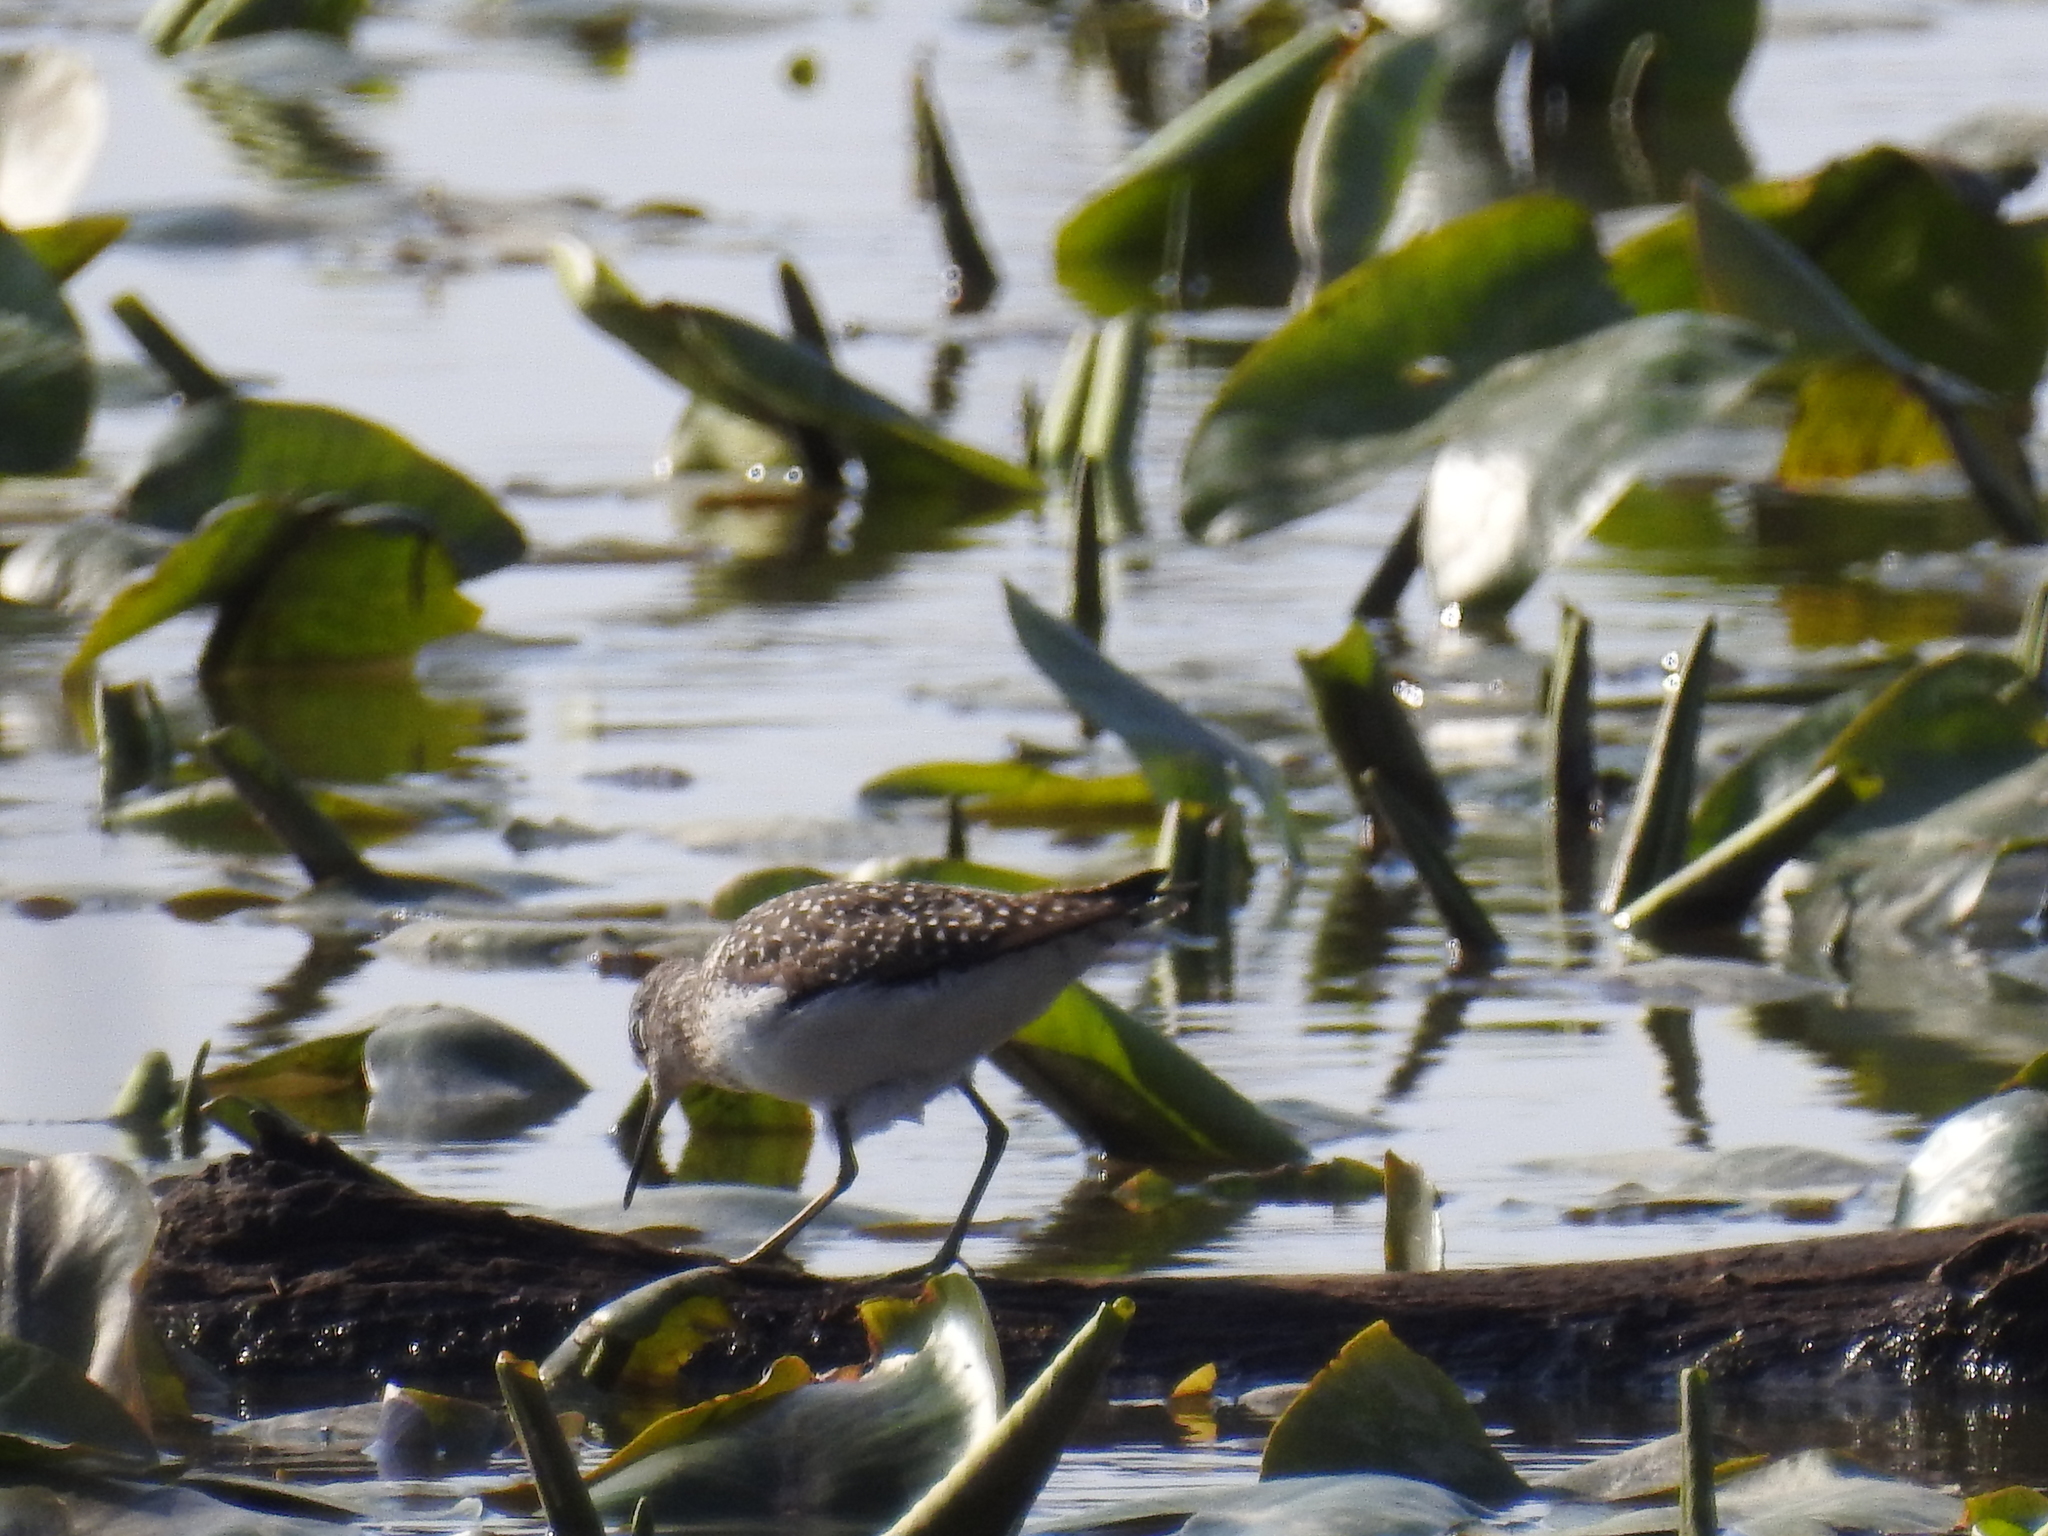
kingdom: Animalia
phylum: Chordata
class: Aves
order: Charadriiformes
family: Scolopacidae
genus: Tringa
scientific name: Tringa solitaria
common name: Solitary sandpiper
